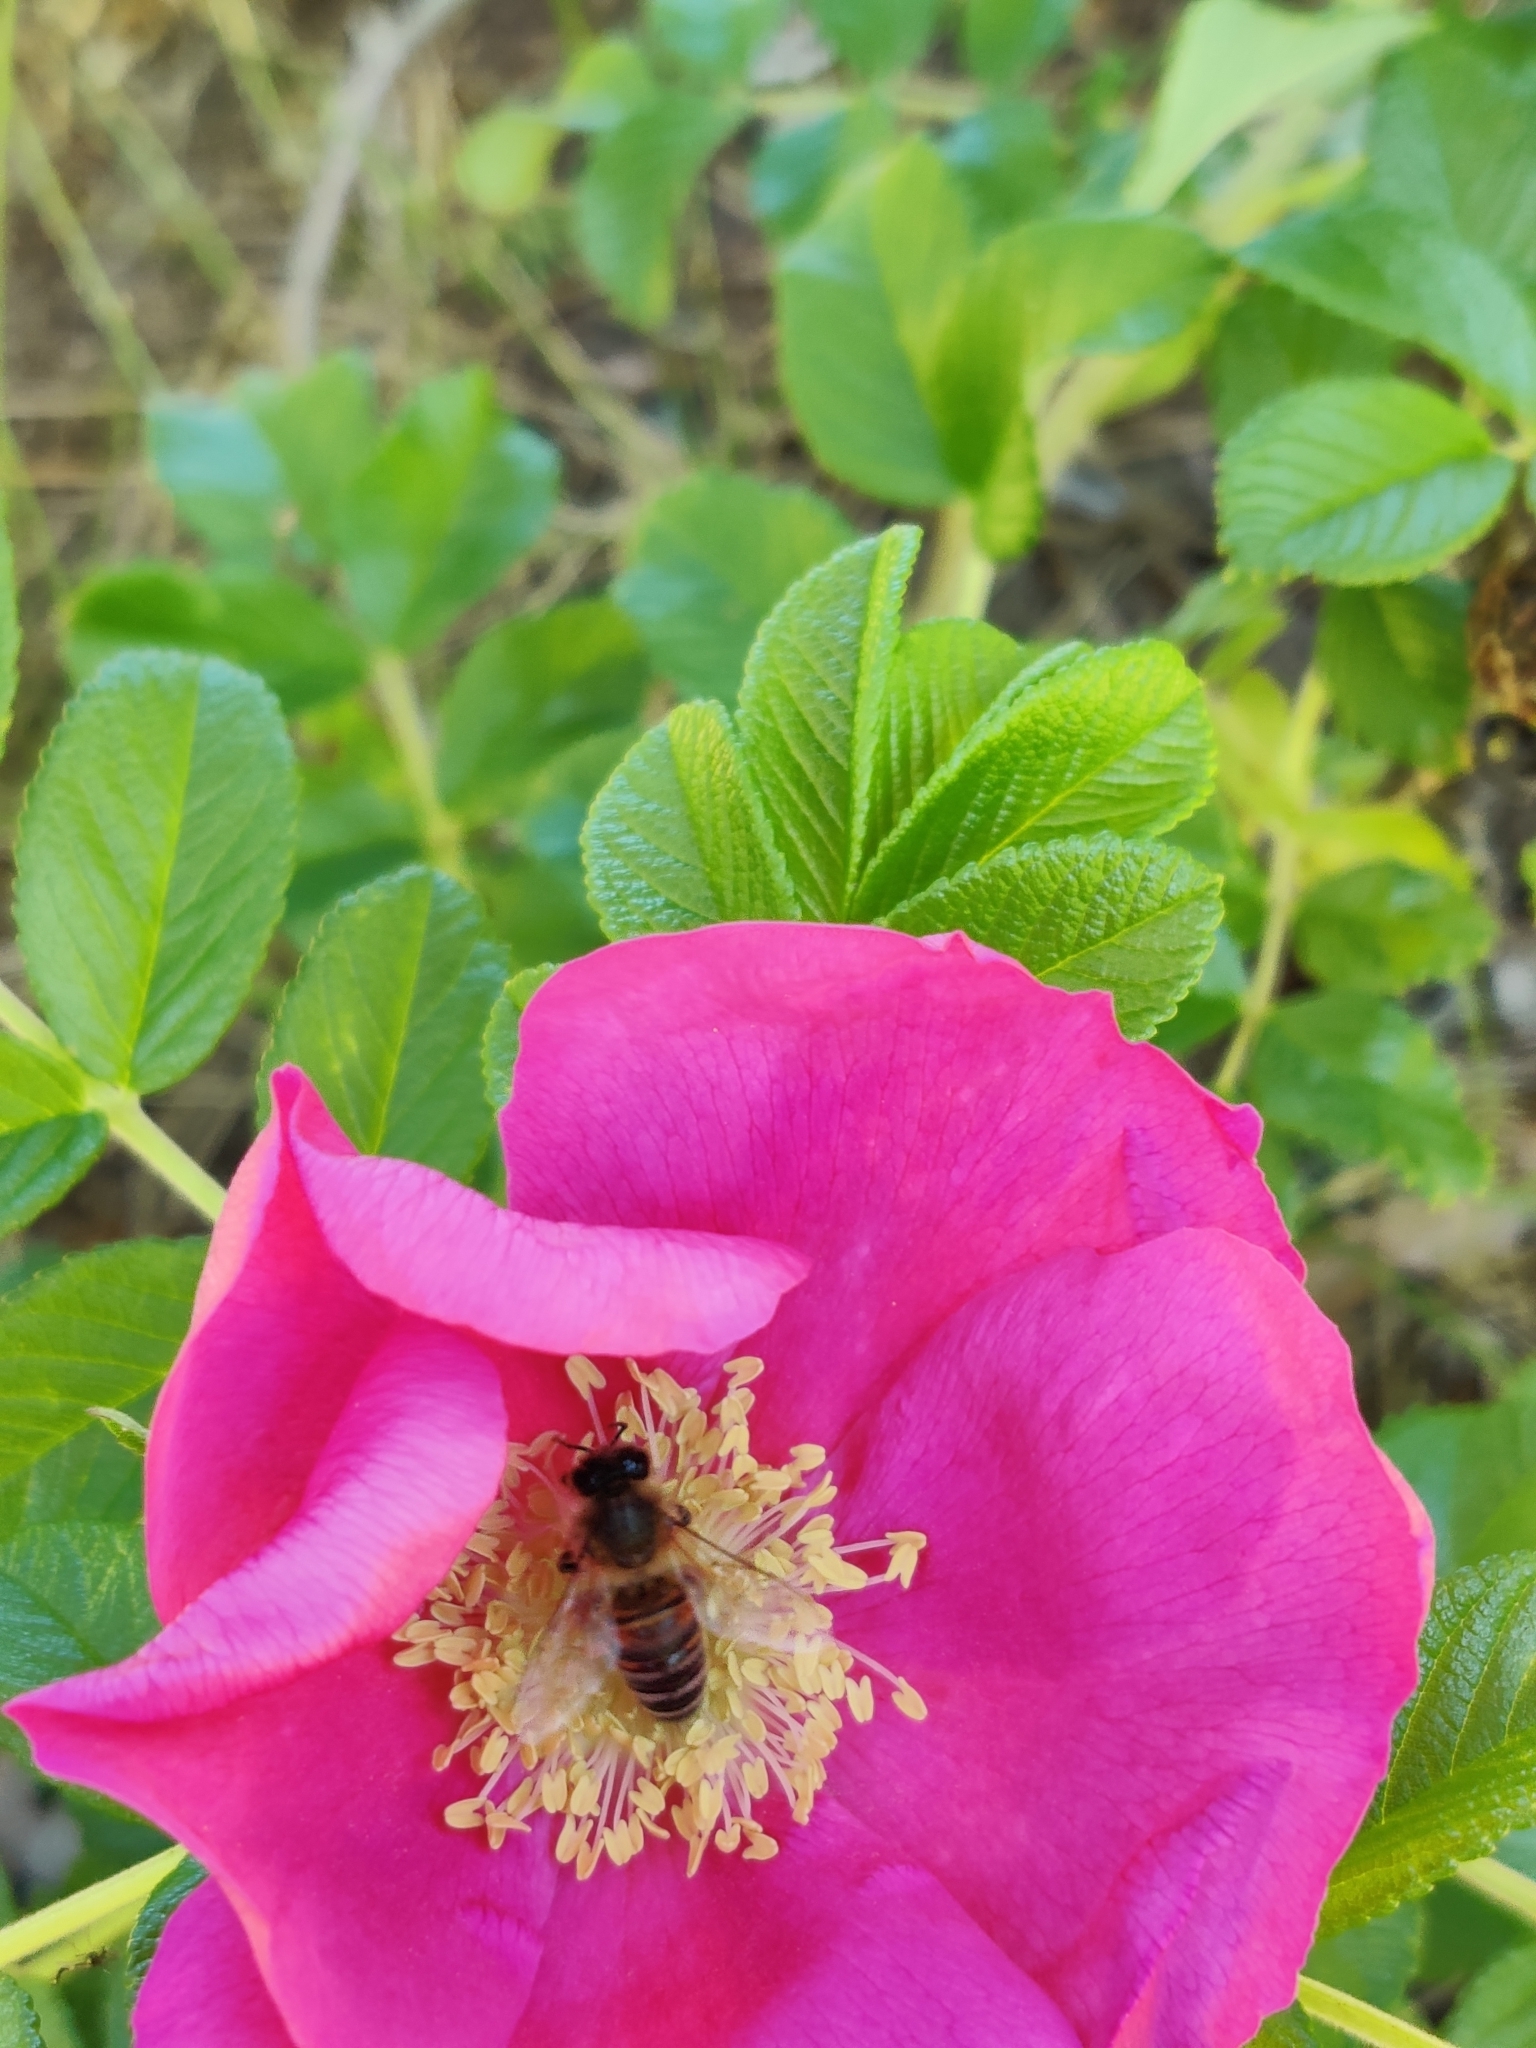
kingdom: Animalia
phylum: Arthropoda
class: Insecta
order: Hymenoptera
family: Apidae
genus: Apis
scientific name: Apis mellifera
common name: Honey bee
